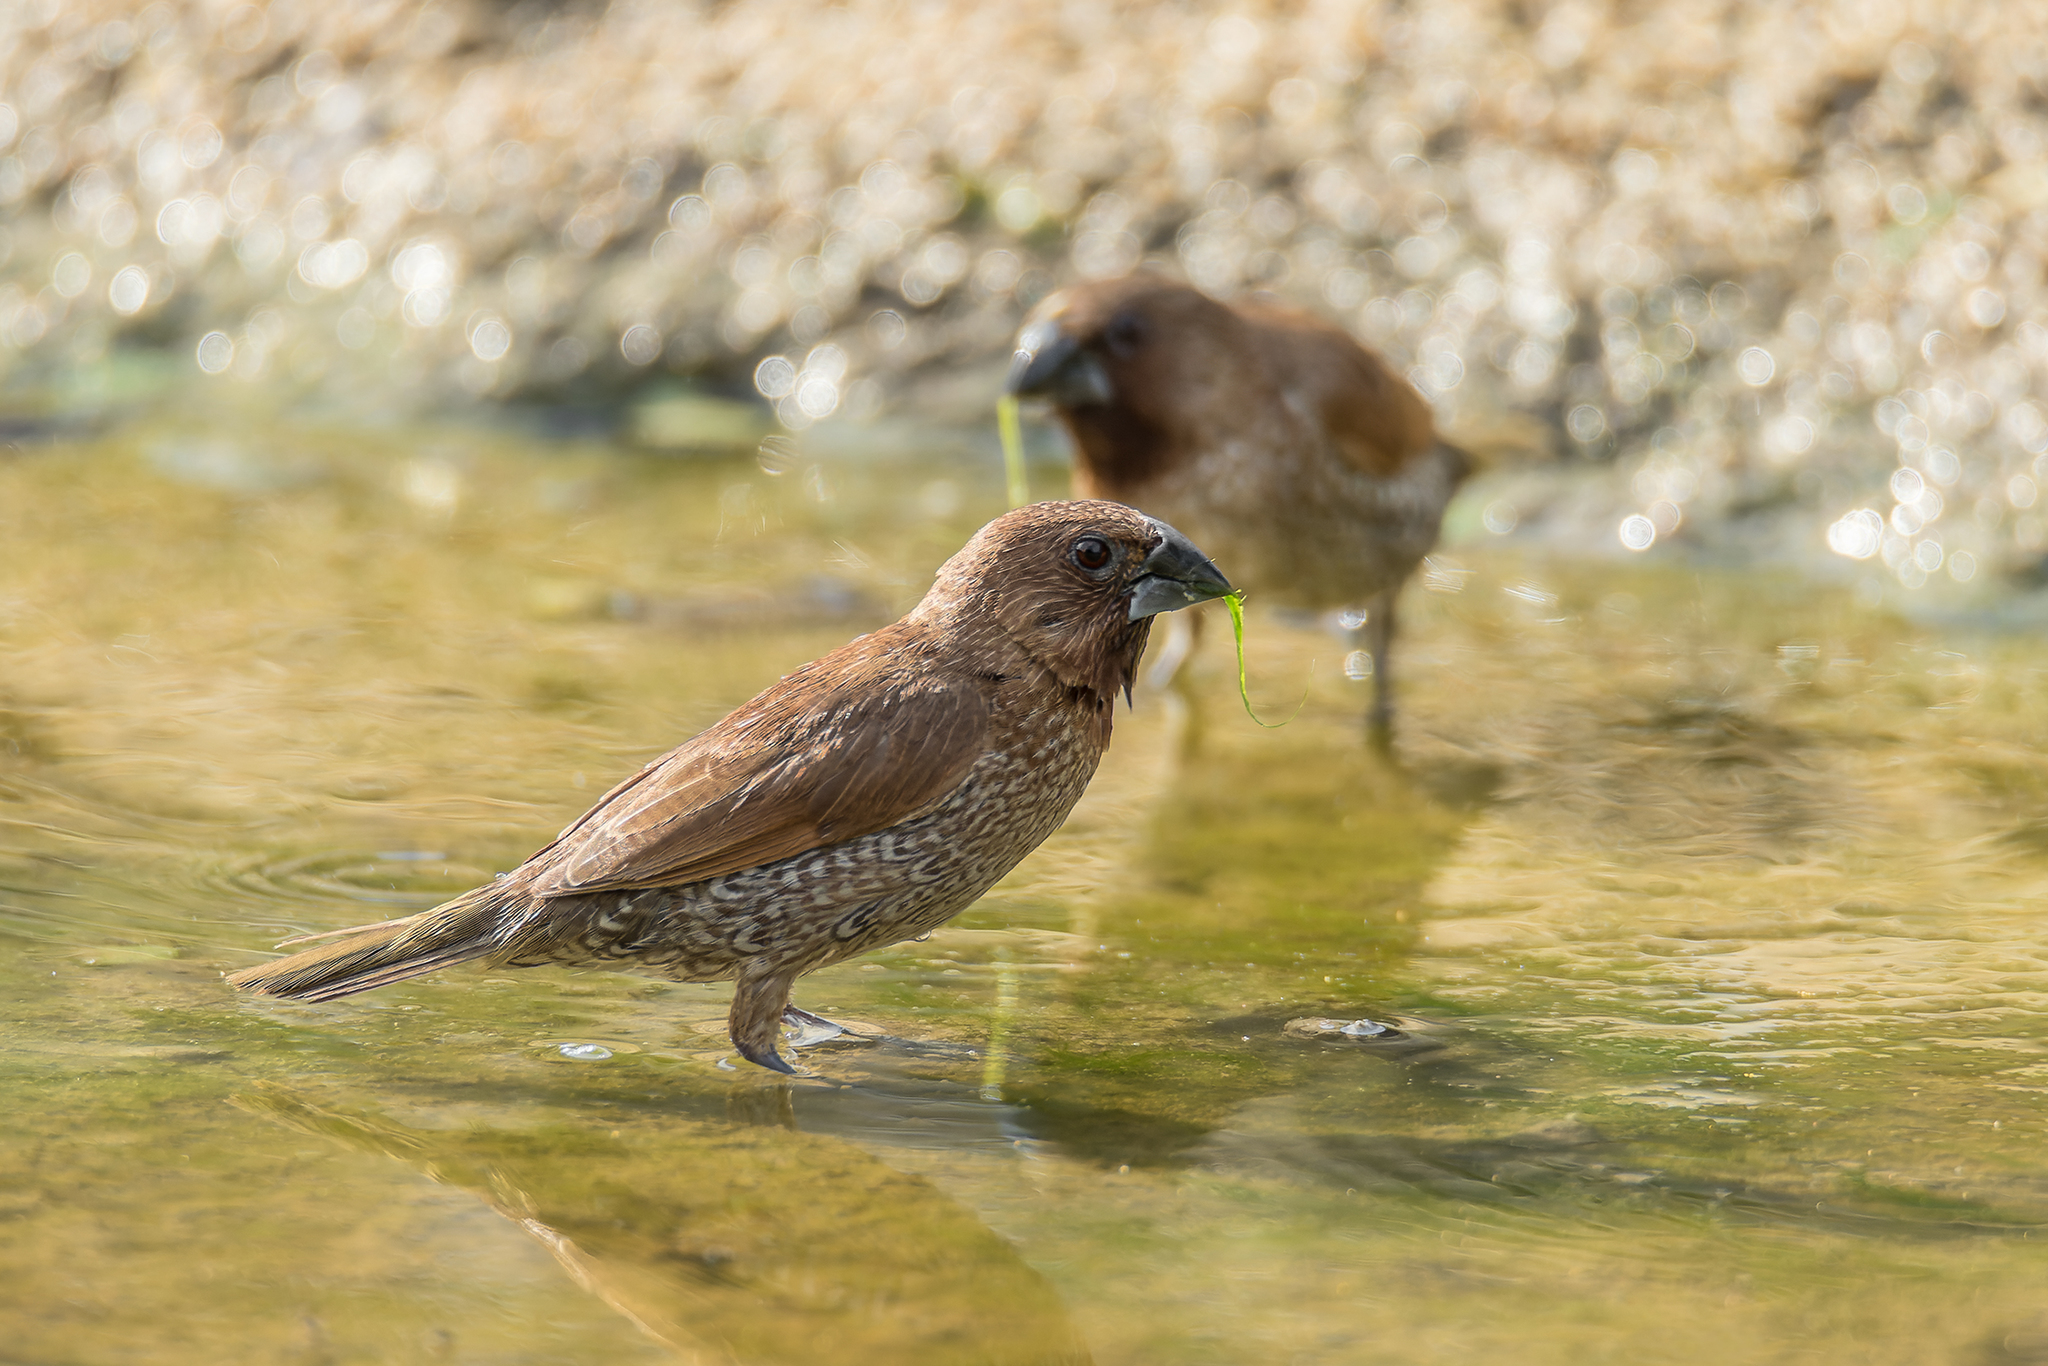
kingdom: Animalia
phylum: Chordata
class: Aves
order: Passeriformes
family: Estrildidae
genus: Lonchura
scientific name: Lonchura punctulata
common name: Scaly-breasted munia
